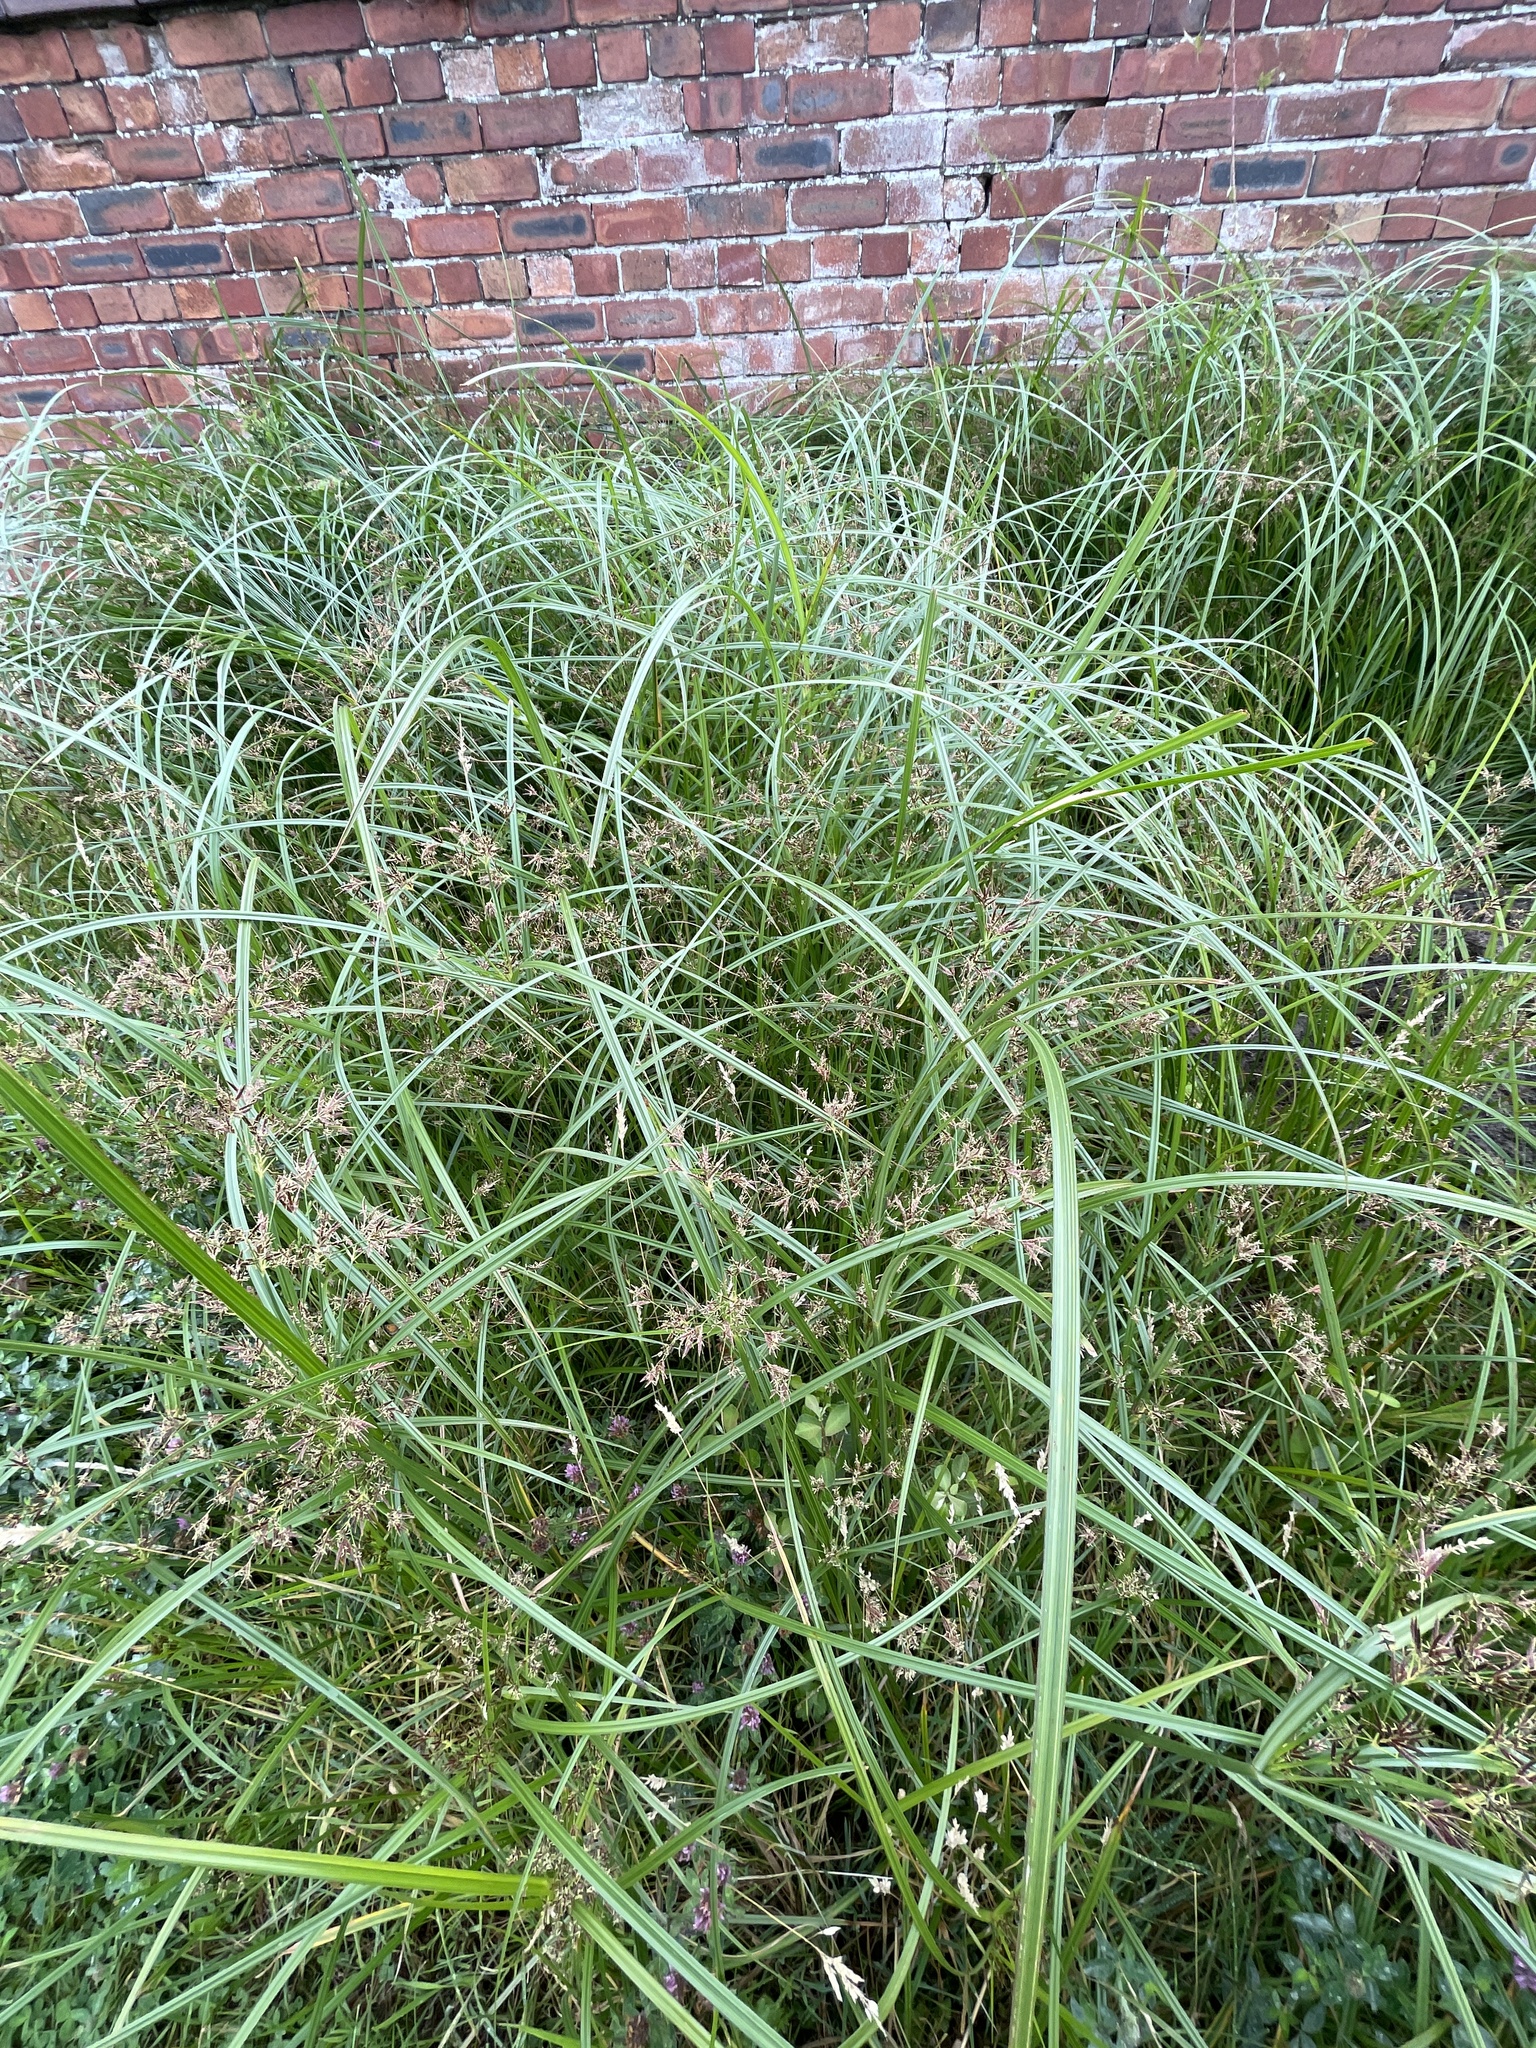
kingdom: Plantae
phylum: Tracheophyta
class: Liliopsida
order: Poales
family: Cyperaceae
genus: Cyperus
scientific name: Cyperus longus
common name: Galingale
